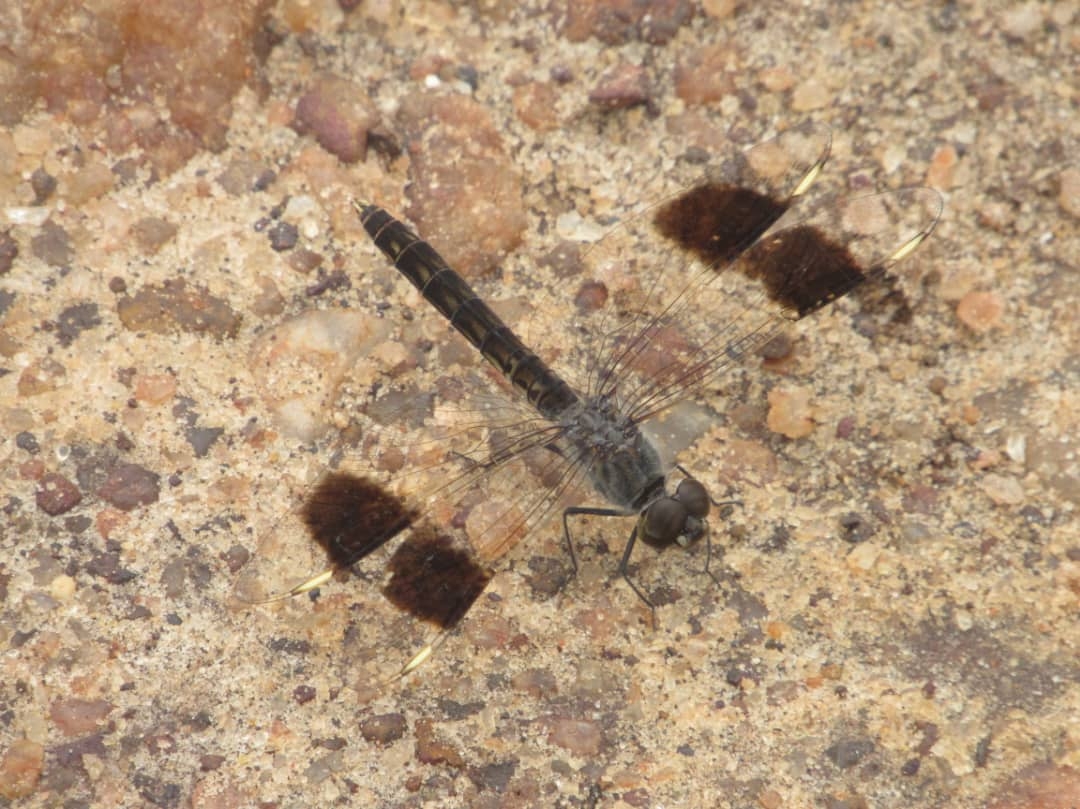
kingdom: Animalia
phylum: Arthropoda
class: Insecta
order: Odonata
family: Libellulidae
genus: Brachythemis
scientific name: Brachythemis impartita
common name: Banded groundling
